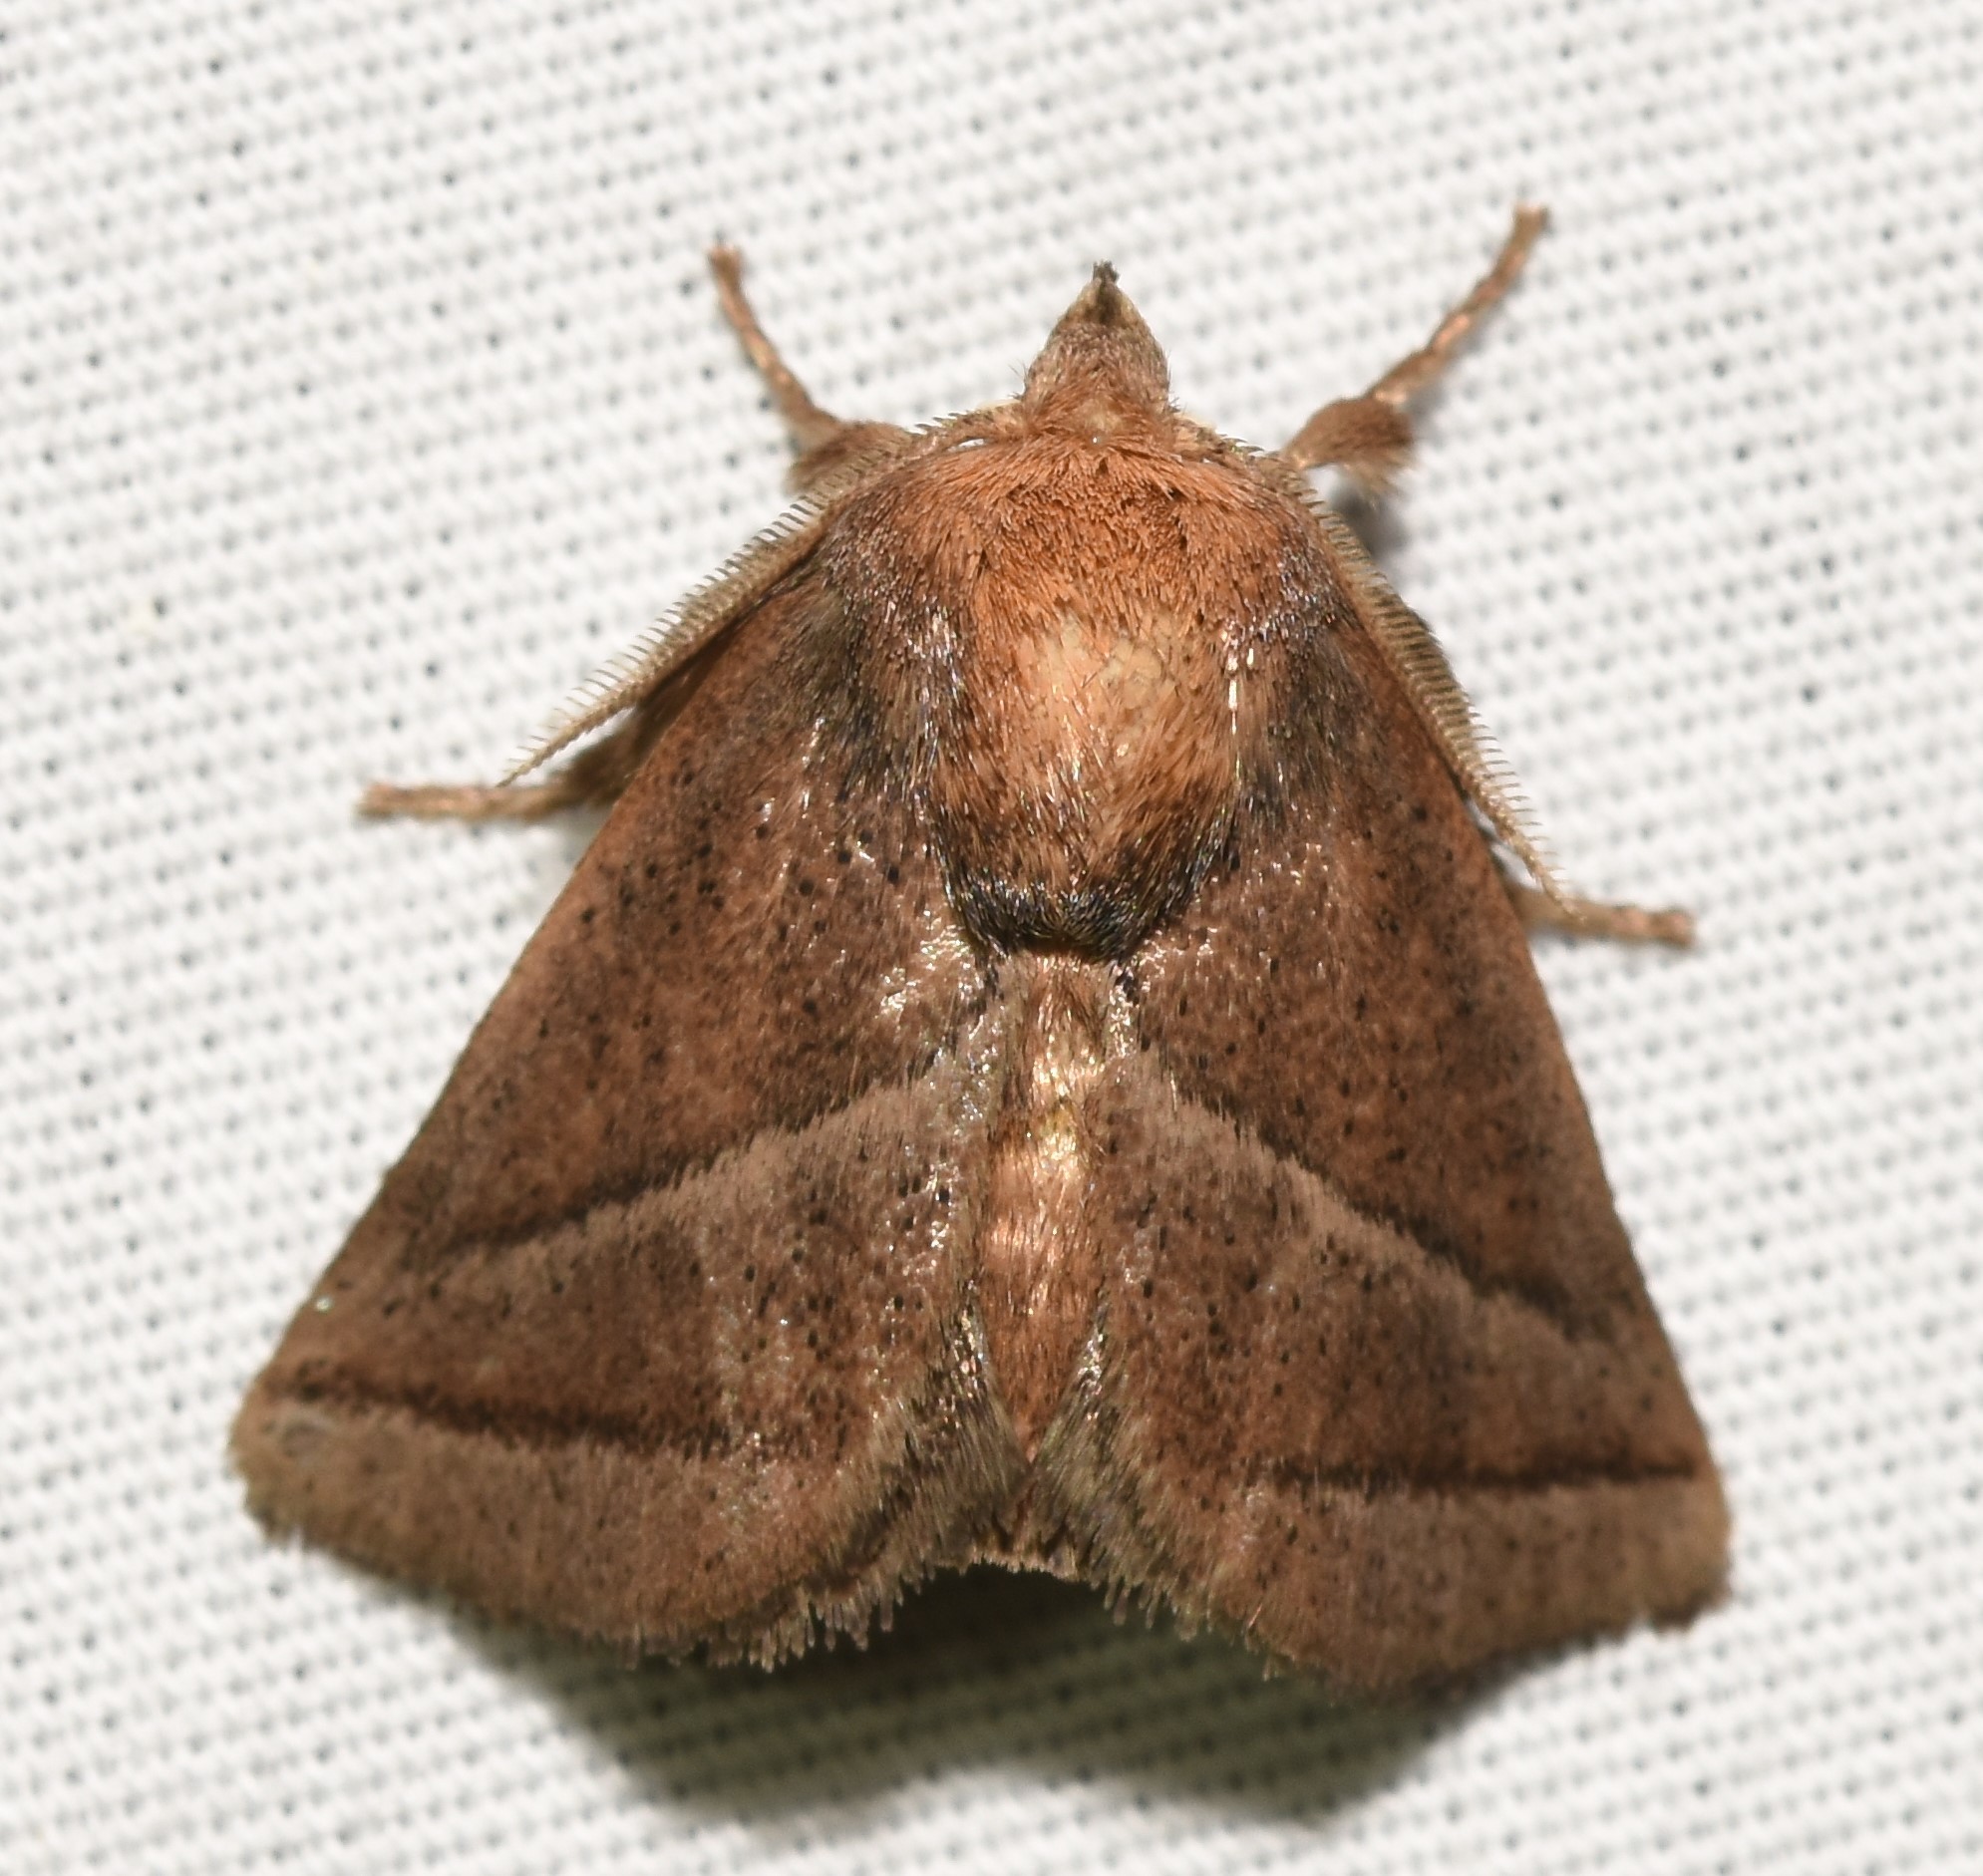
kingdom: Animalia
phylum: Arthropoda
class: Insecta
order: Lepidoptera
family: Limacodidae
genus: Natada
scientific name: Natada nasoni
